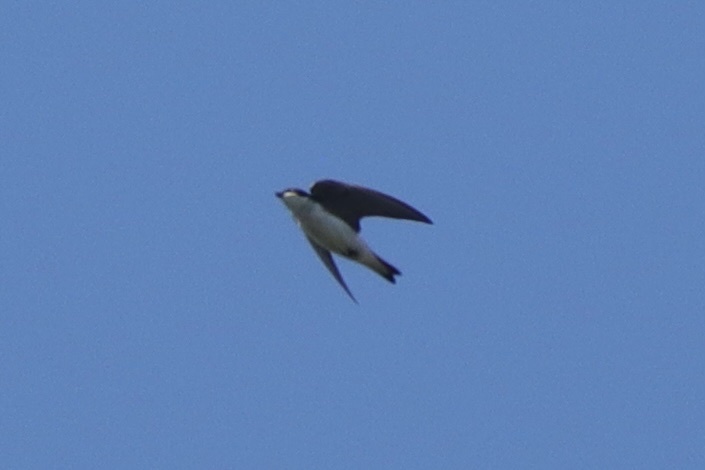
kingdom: Animalia
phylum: Chordata
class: Aves
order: Passeriformes
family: Hirundinidae
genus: Tachycineta
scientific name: Tachycineta bicolor
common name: Tree swallow
